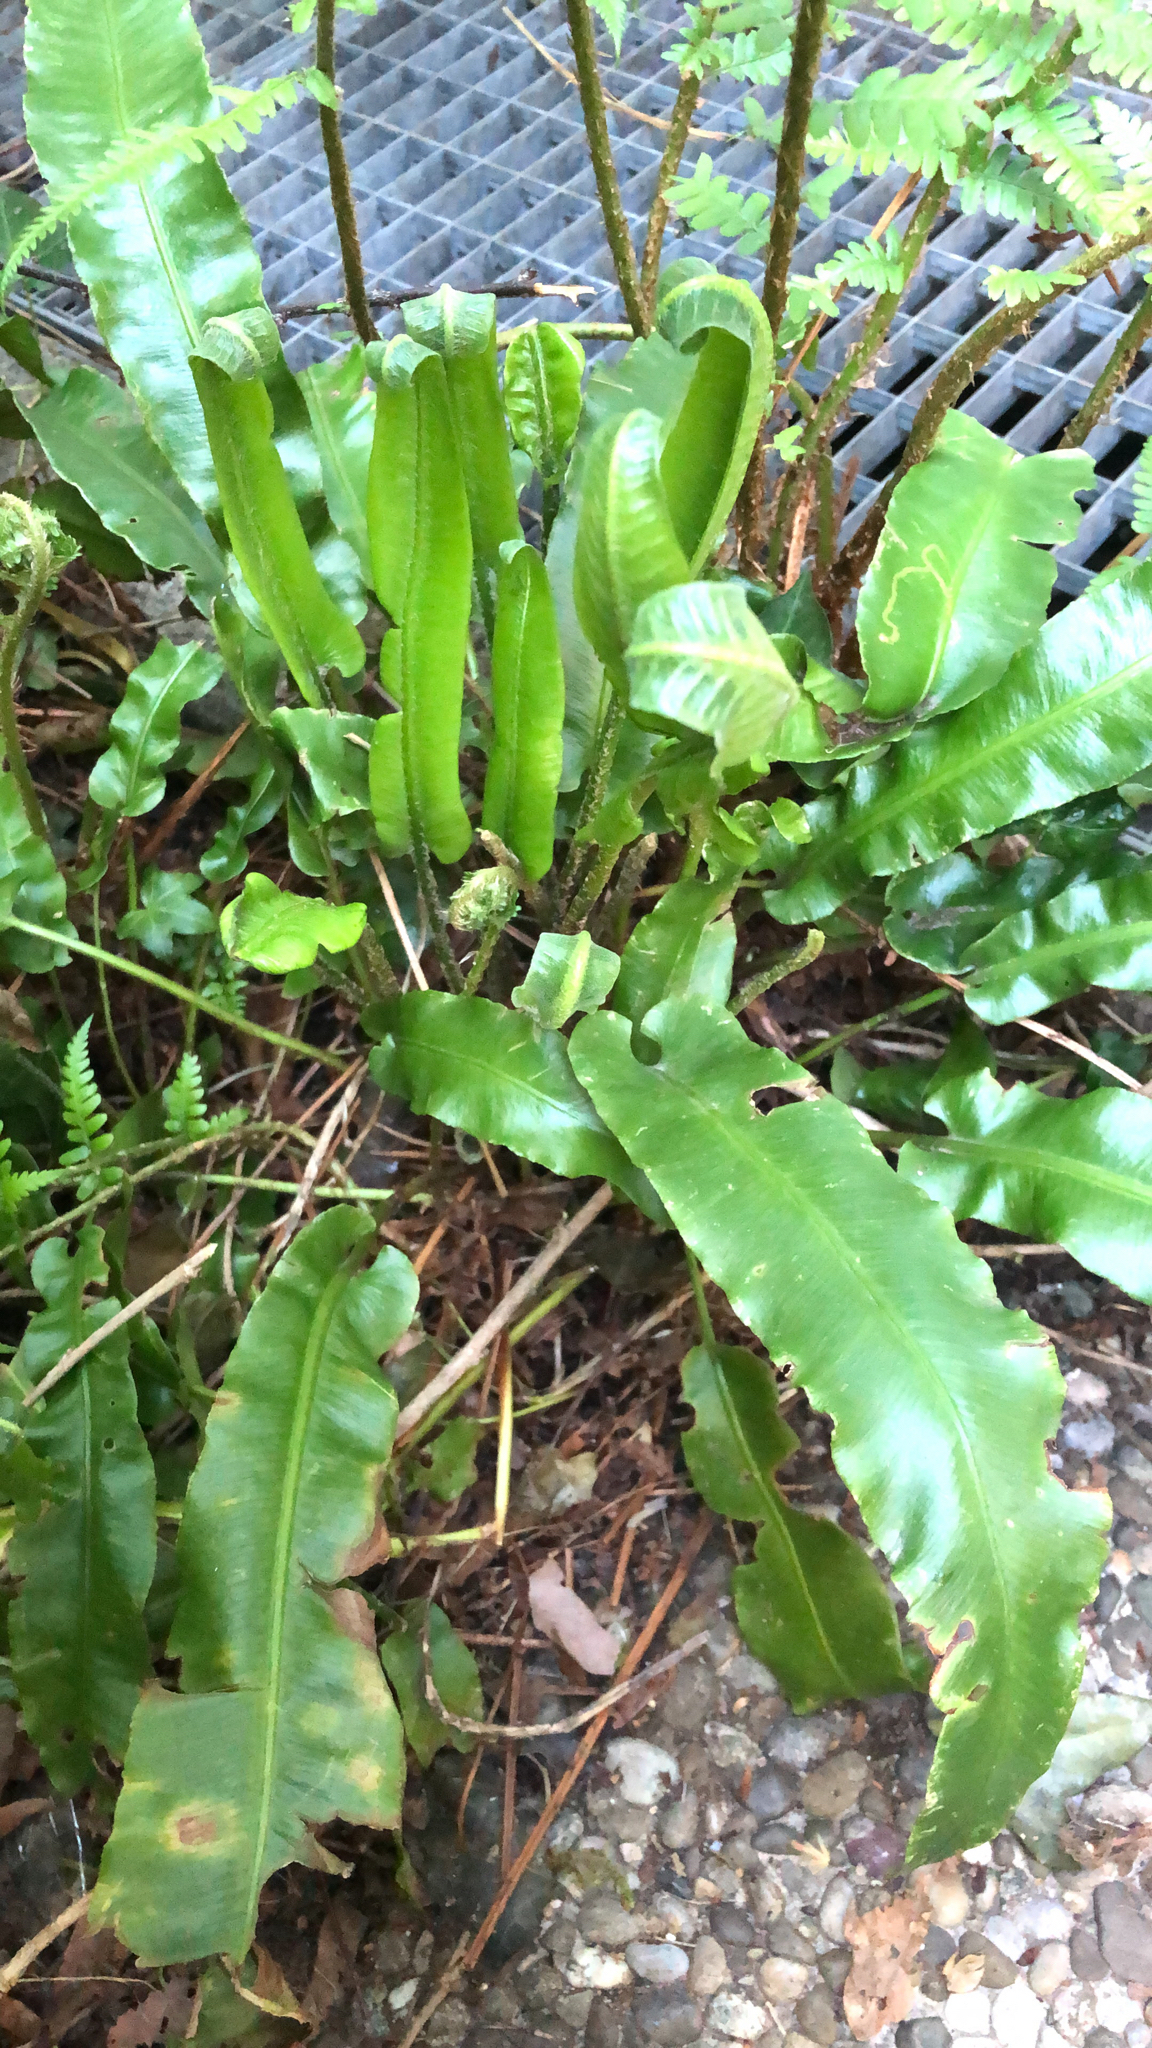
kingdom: Plantae
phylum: Tracheophyta
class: Polypodiopsida
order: Polypodiales
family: Aspleniaceae
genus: Asplenium
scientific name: Asplenium scolopendrium
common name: Hart's-tongue fern
